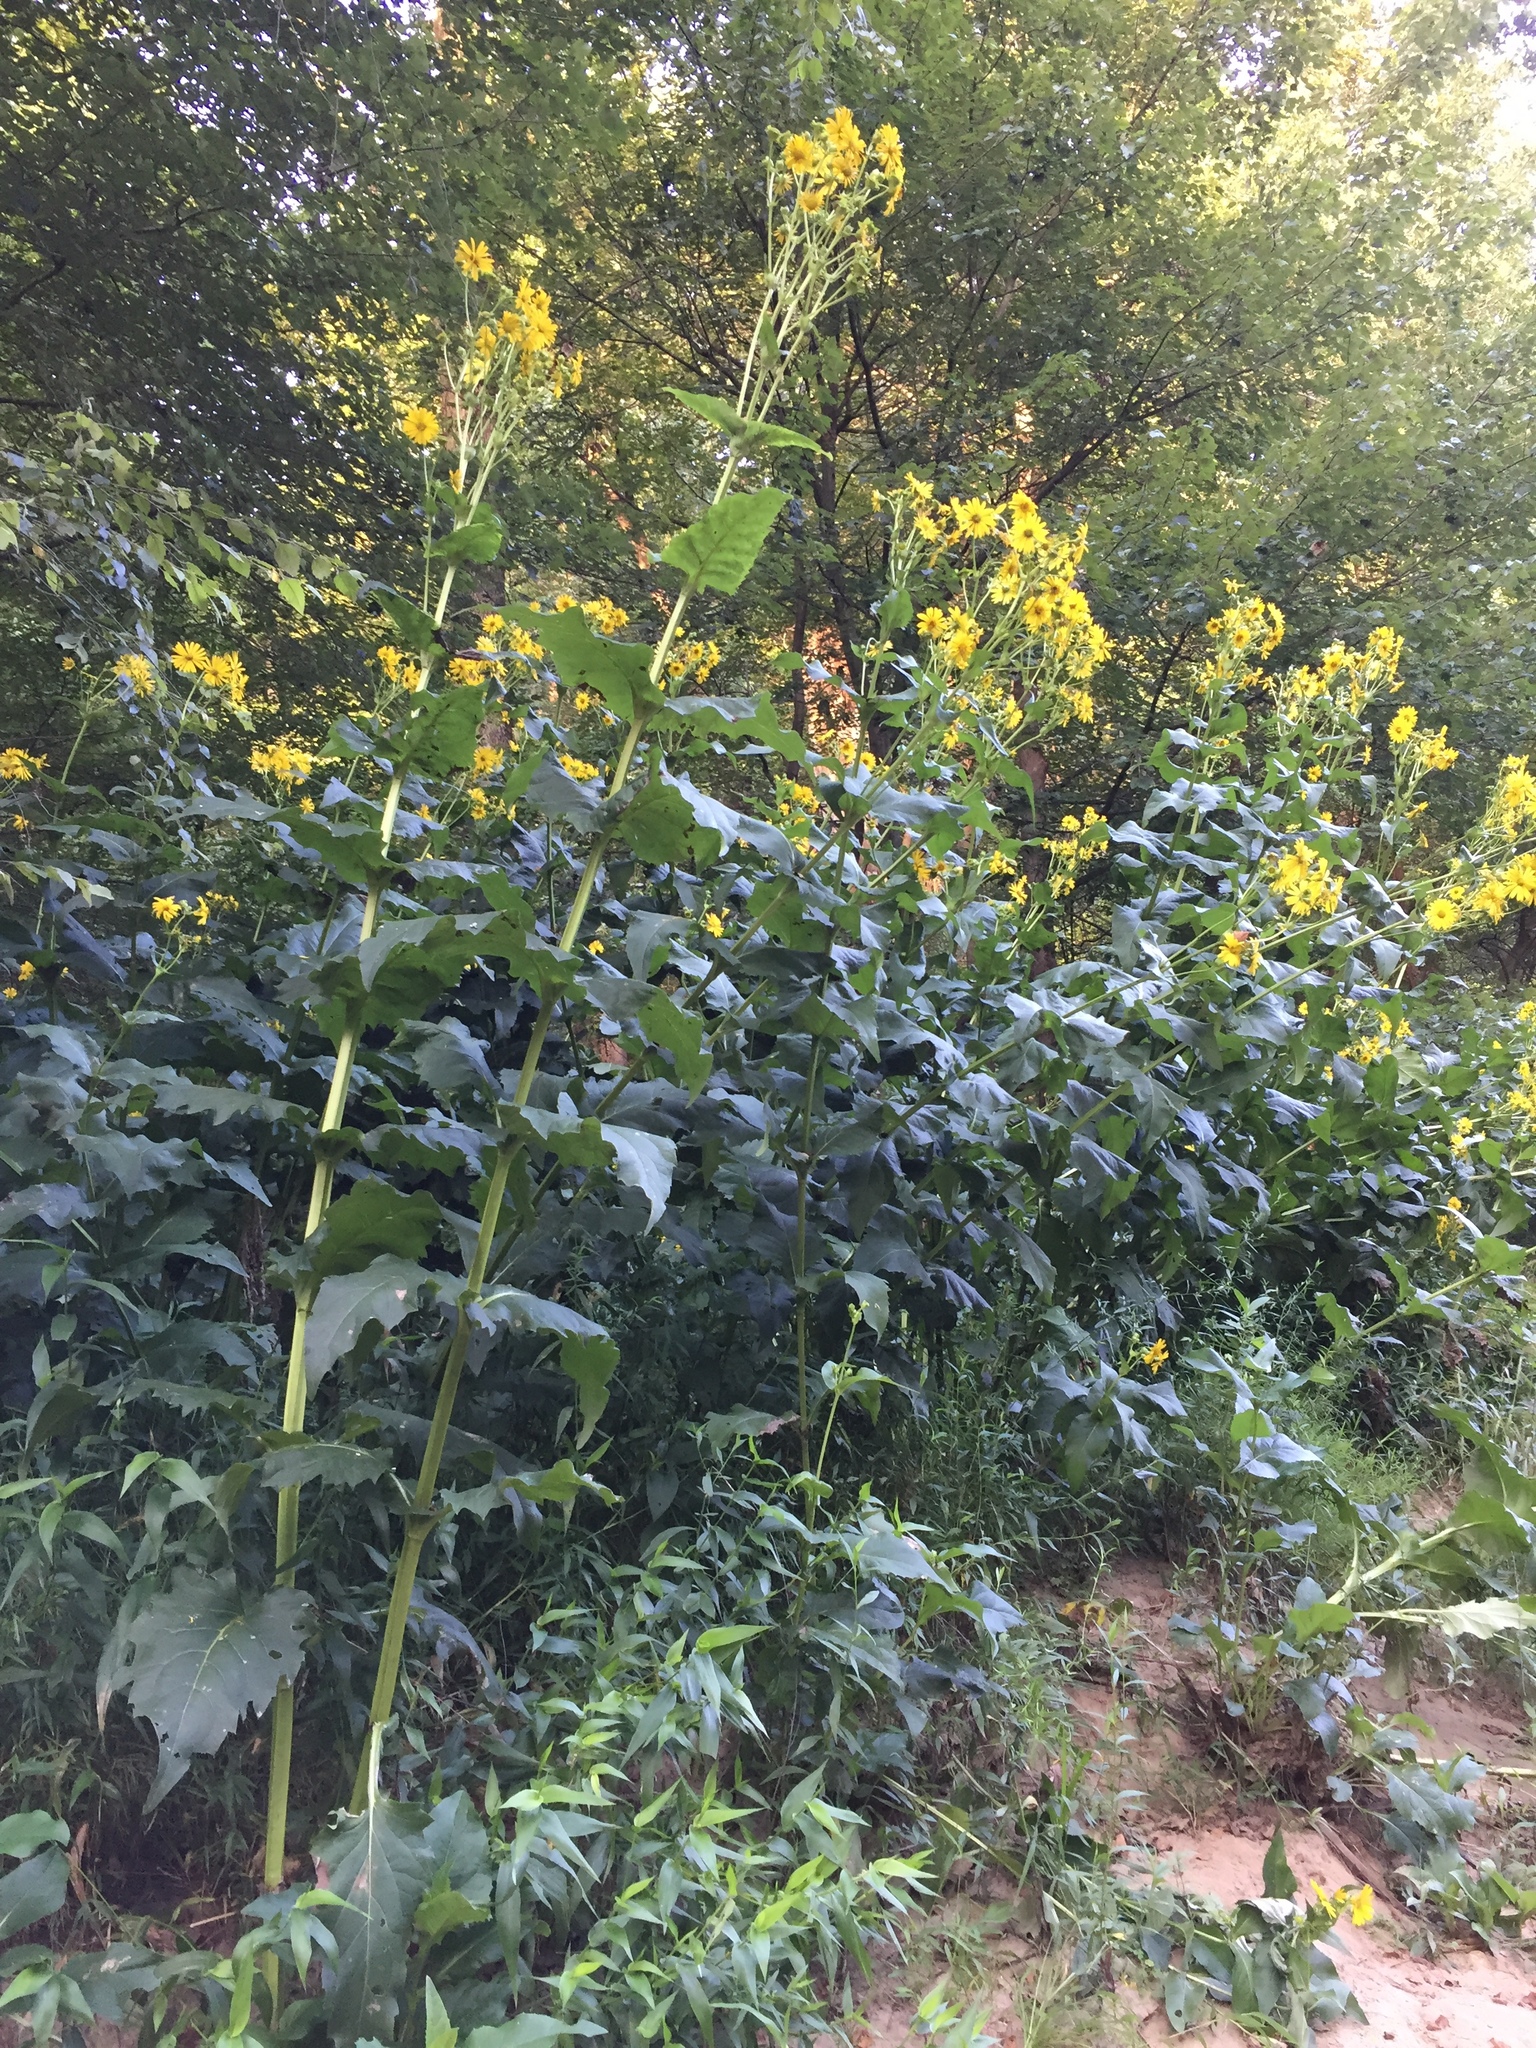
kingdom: Plantae
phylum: Tracheophyta
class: Magnoliopsida
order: Asterales
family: Asteraceae
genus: Silphium
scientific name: Silphium perfoliatum
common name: Cup-plant
